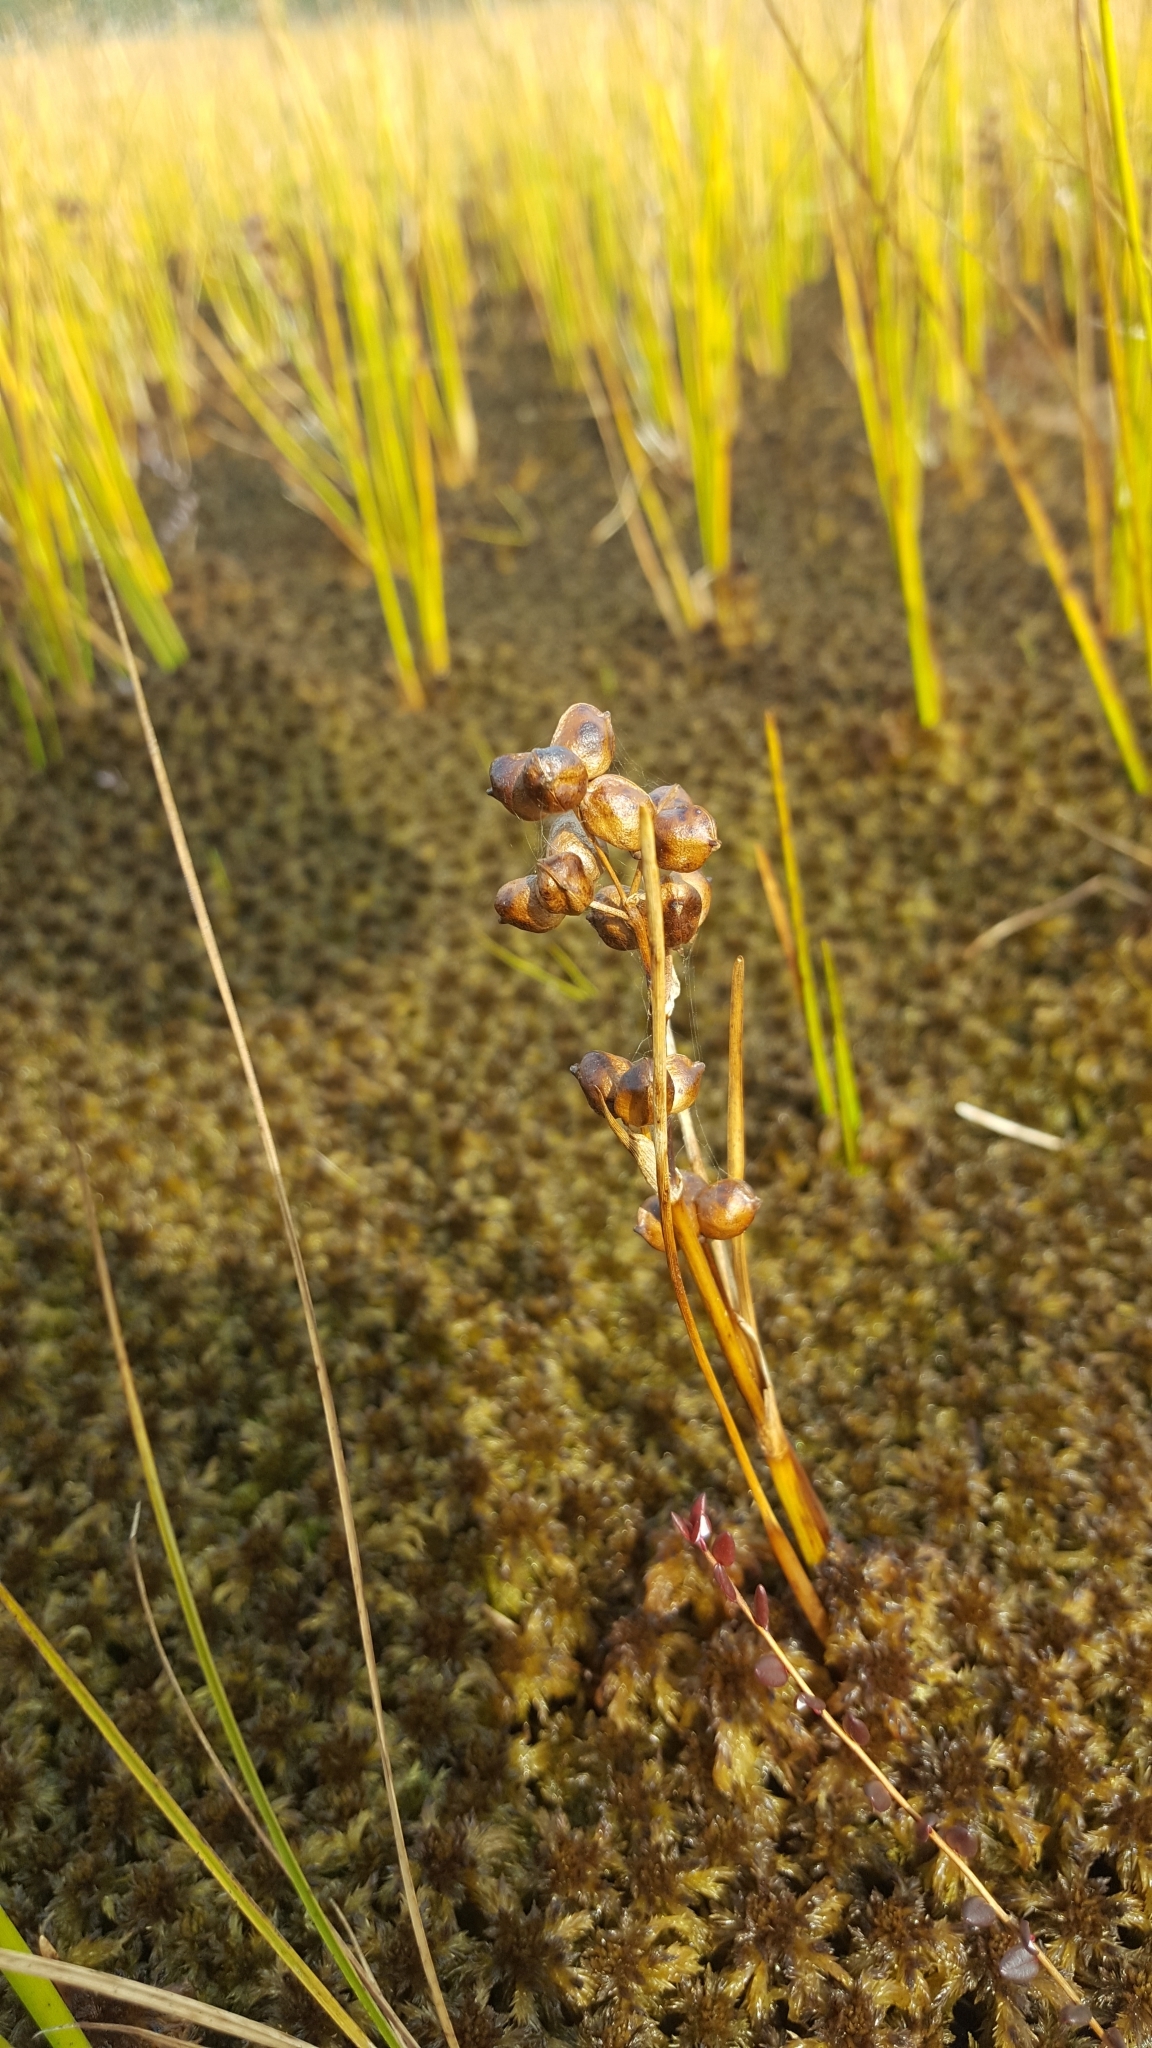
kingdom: Plantae
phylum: Tracheophyta
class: Liliopsida
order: Alismatales
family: Scheuchzeriaceae
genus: Scheuchzeria
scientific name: Scheuchzeria palustris
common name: Rannoch-rush
